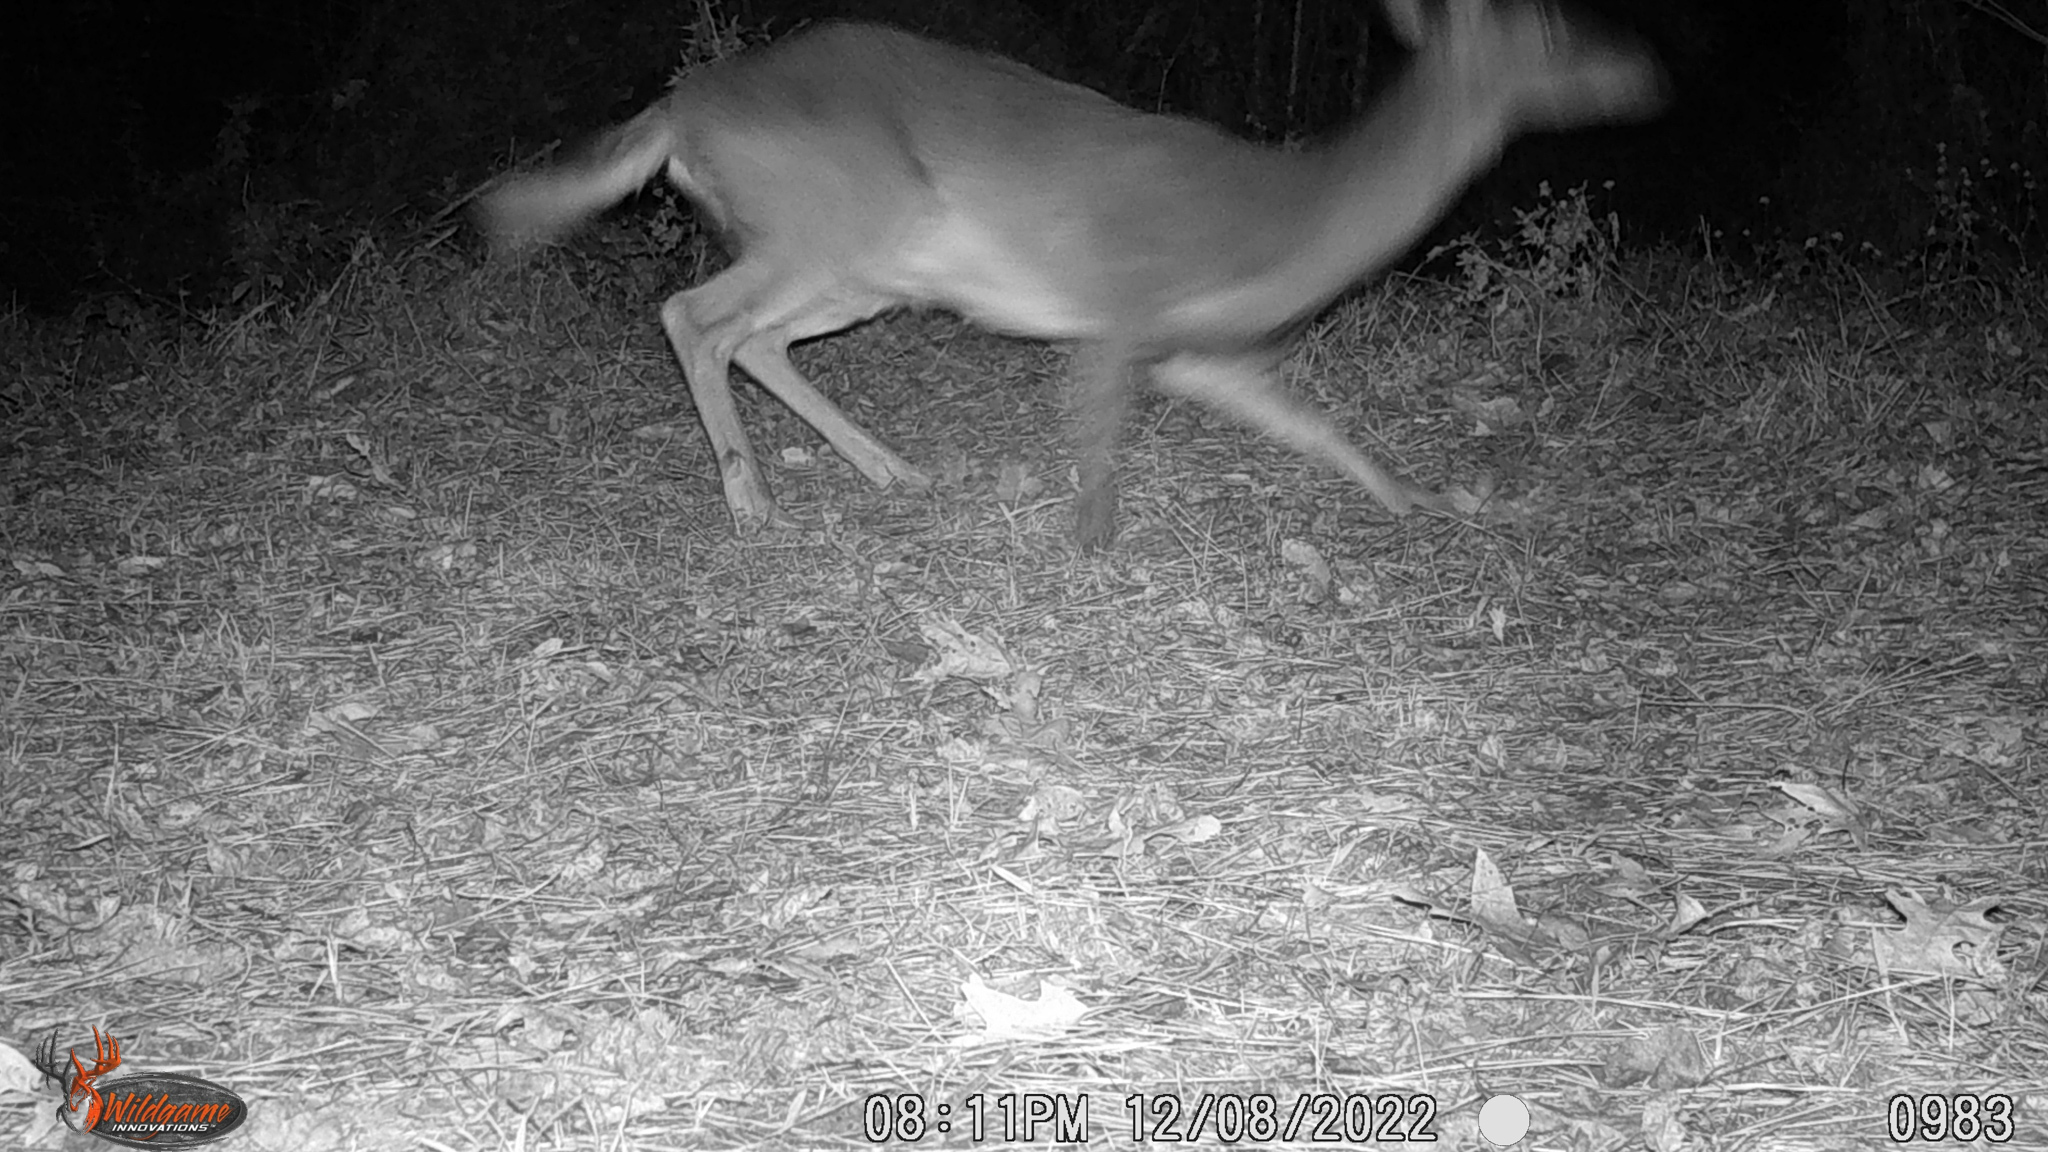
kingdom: Animalia
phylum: Chordata
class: Mammalia
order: Artiodactyla
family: Cervidae
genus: Odocoileus
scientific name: Odocoileus virginianus
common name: White-tailed deer
